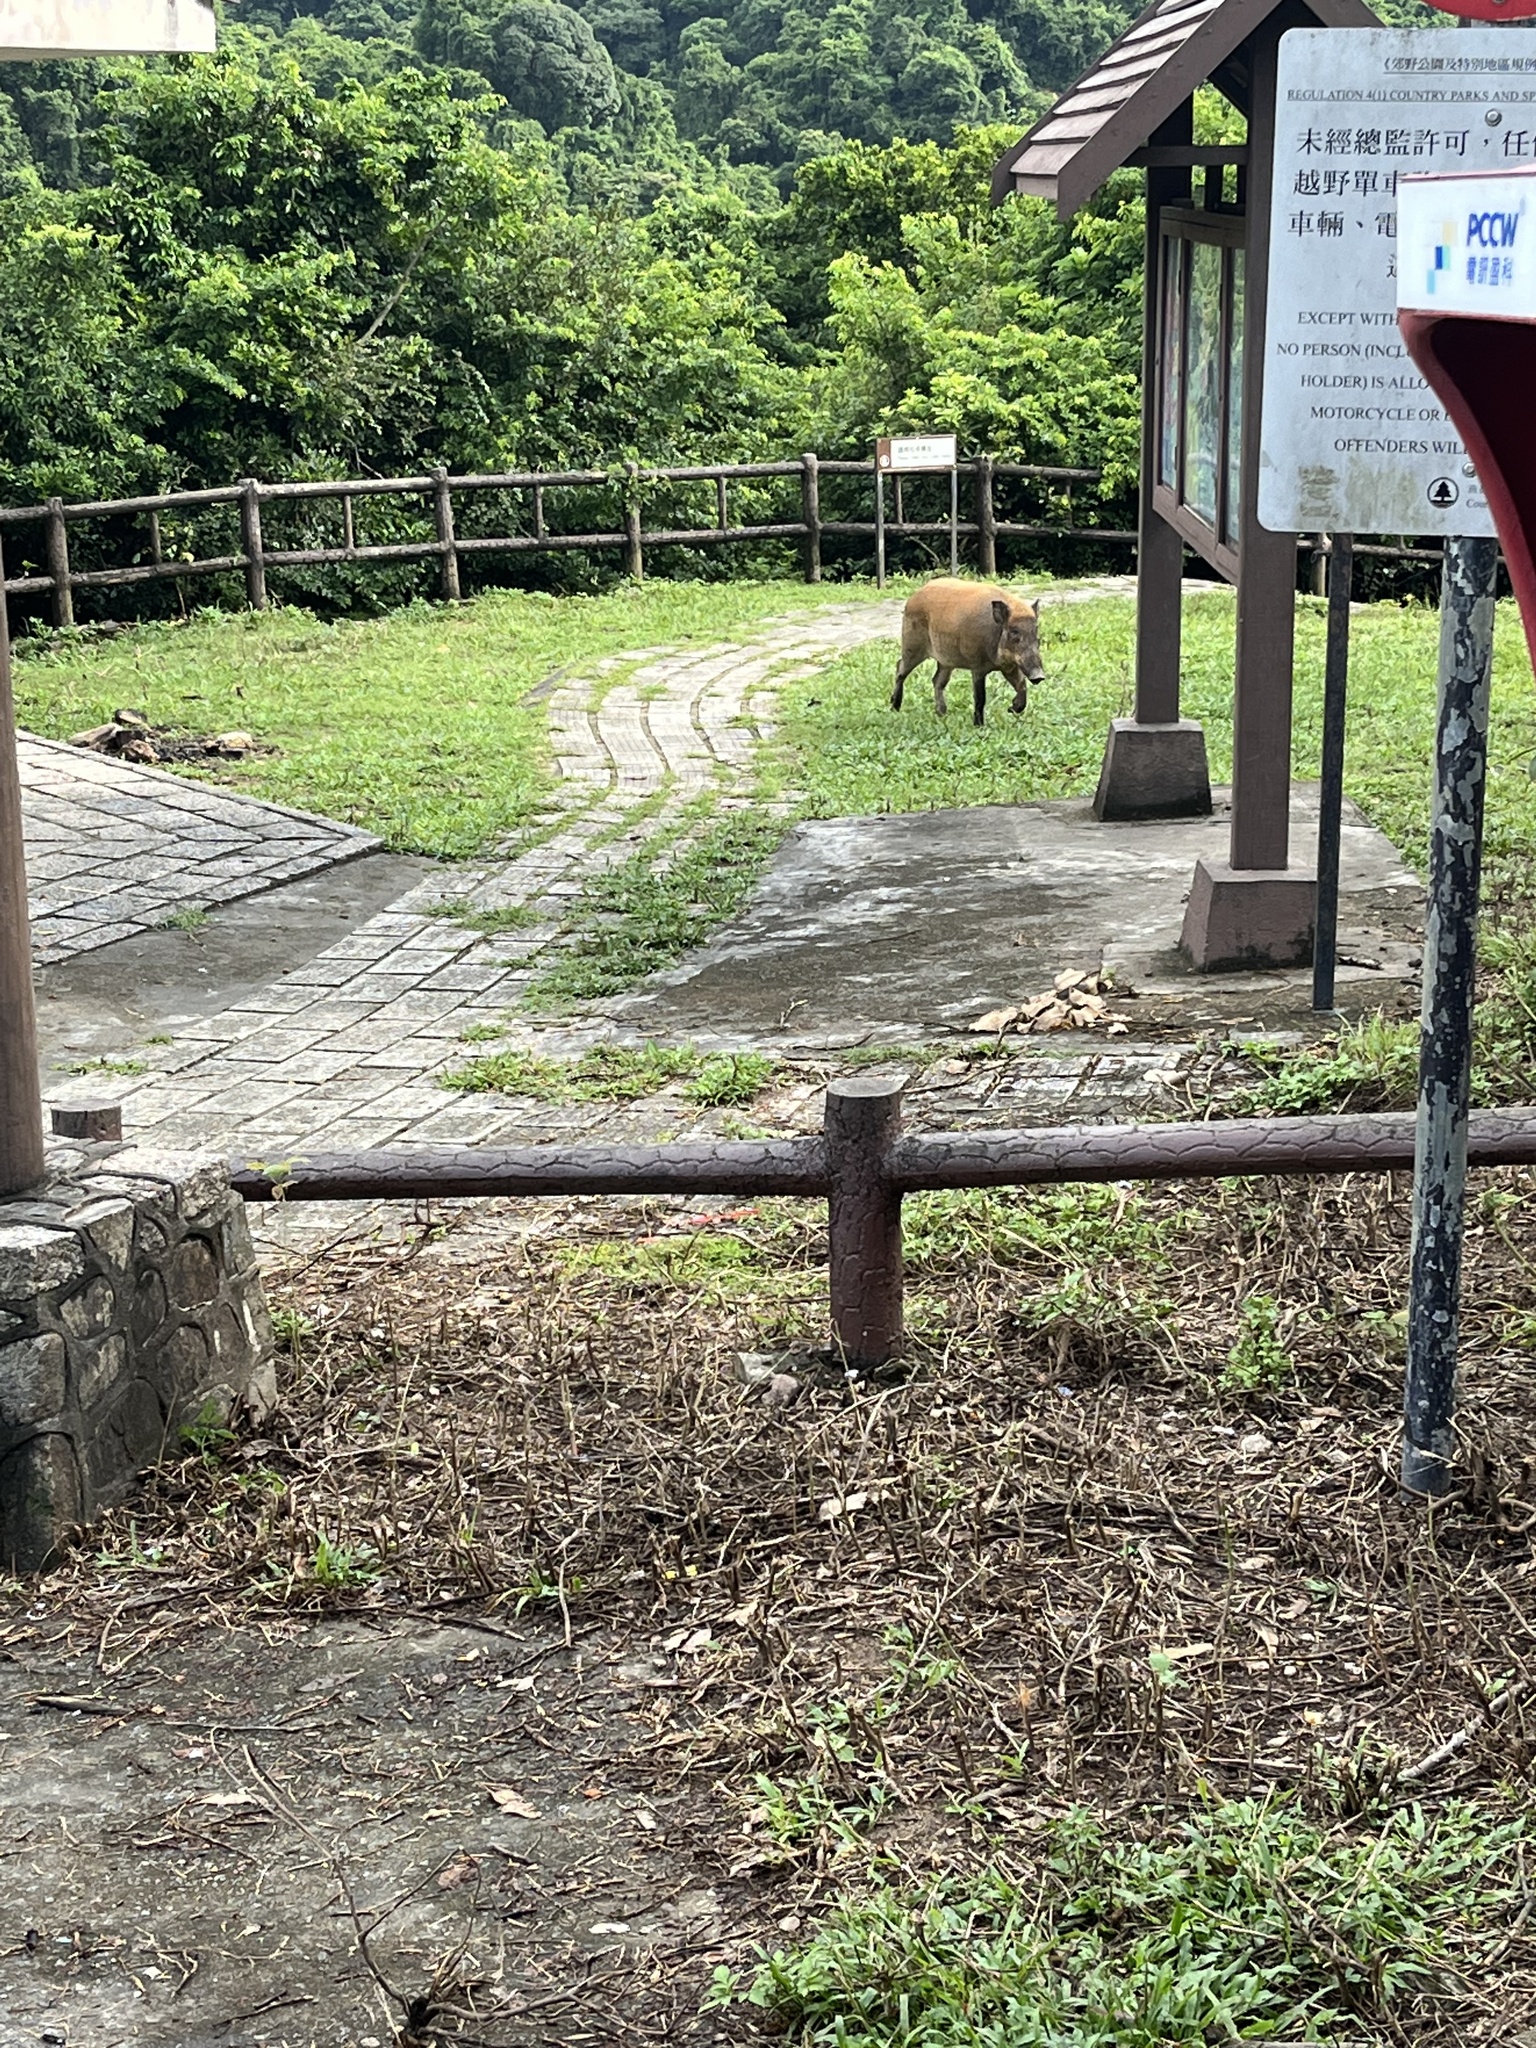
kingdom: Animalia
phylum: Chordata
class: Mammalia
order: Artiodactyla
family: Suidae
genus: Sus
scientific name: Sus scrofa
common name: Wild boar
